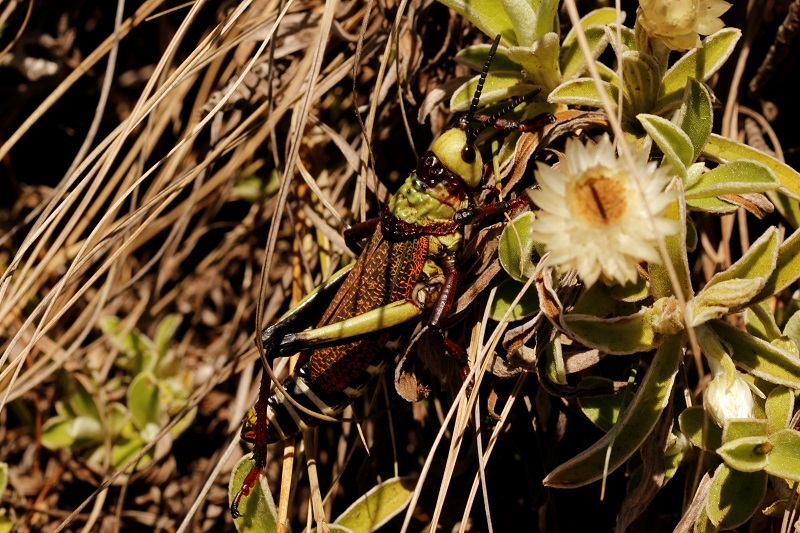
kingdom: Animalia
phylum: Arthropoda
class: Insecta
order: Orthoptera
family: Pyrgomorphidae
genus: Dictyophorus
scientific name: Dictyophorus spumans
